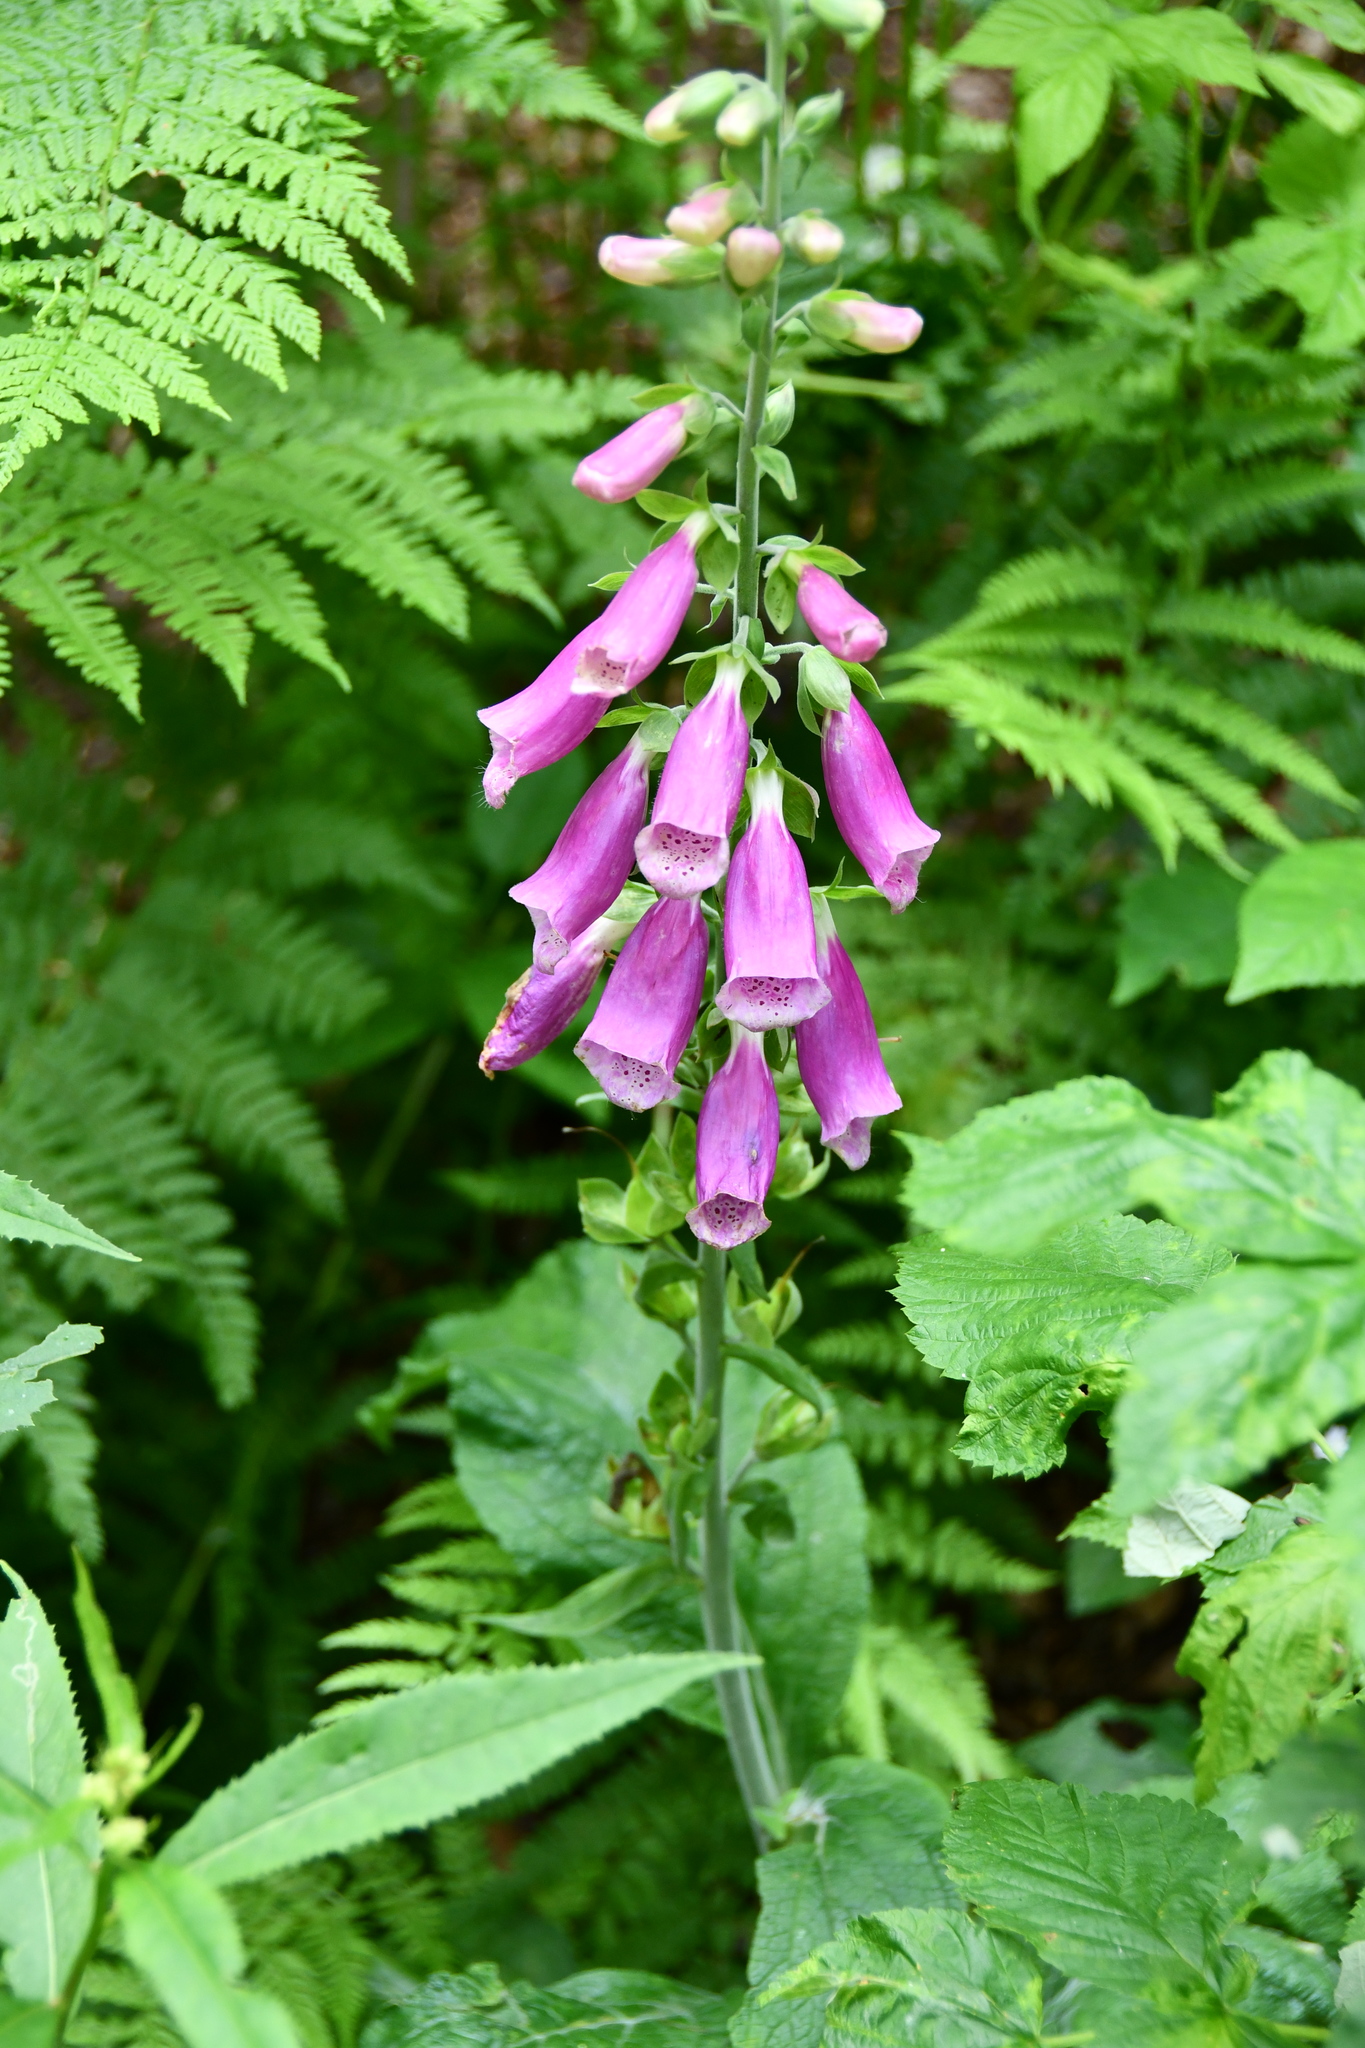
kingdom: Plantae
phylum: Tracheophyta
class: Magnoliopsida
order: Lamiales
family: Plantaginaceae
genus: Digitalis
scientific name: Digitalis purpurea
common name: Foxglove
